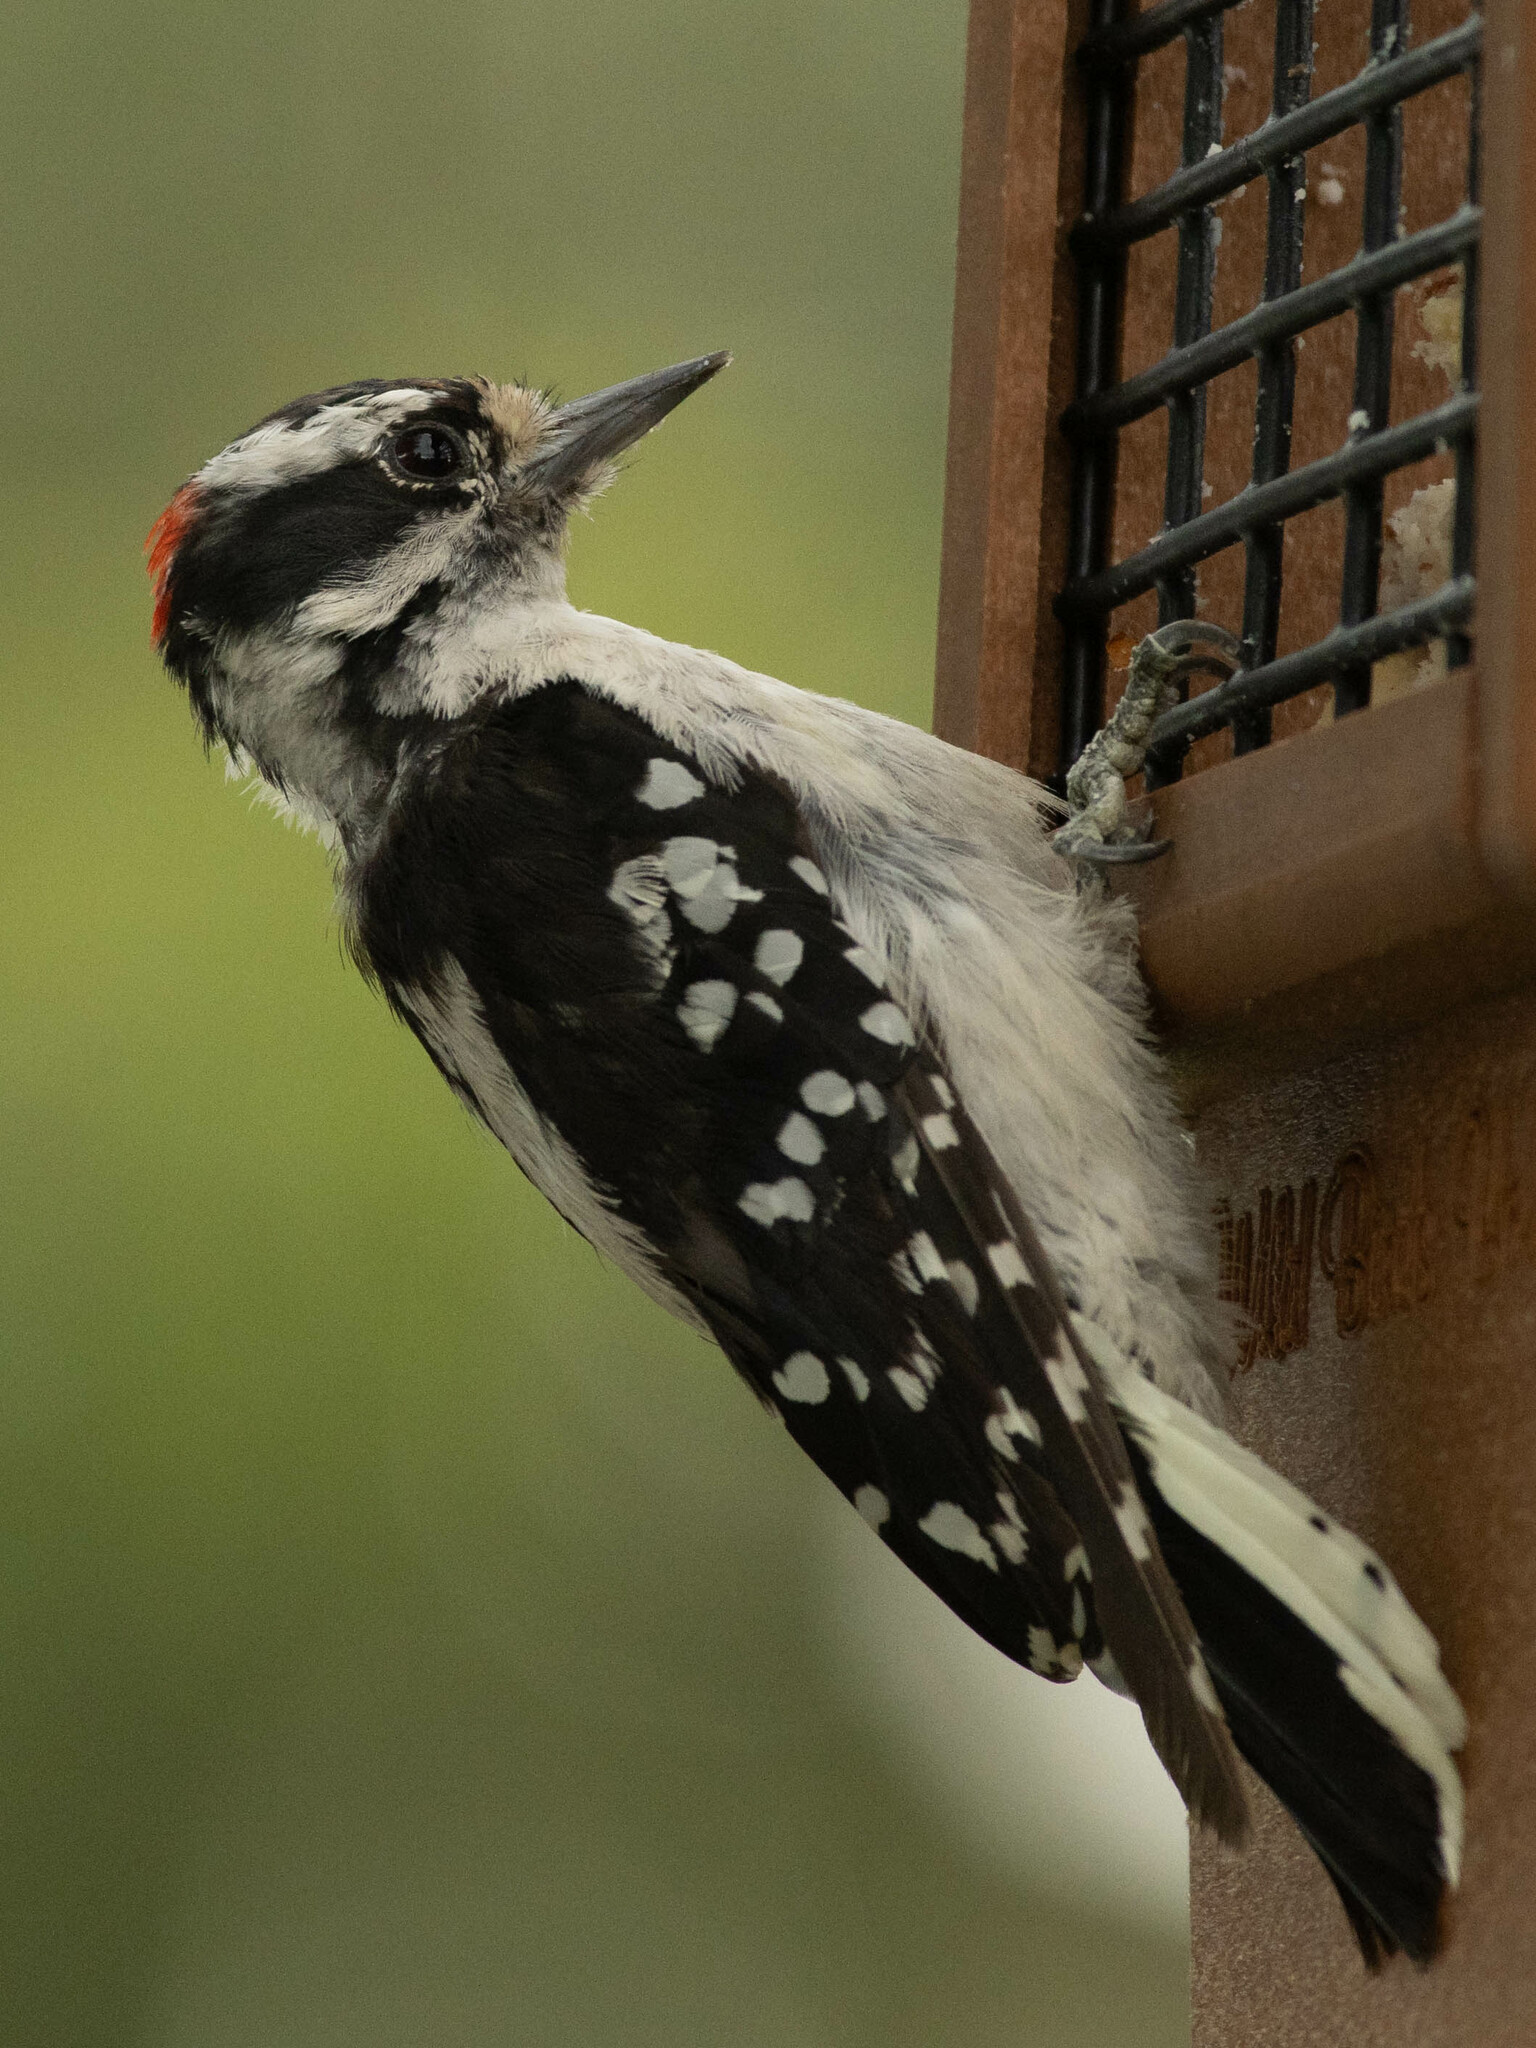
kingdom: Animalia
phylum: Chordata
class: Aves
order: Piciformes
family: Picidae
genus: Dryobates
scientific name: Dryobates pubescens
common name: Downy woodpecker
